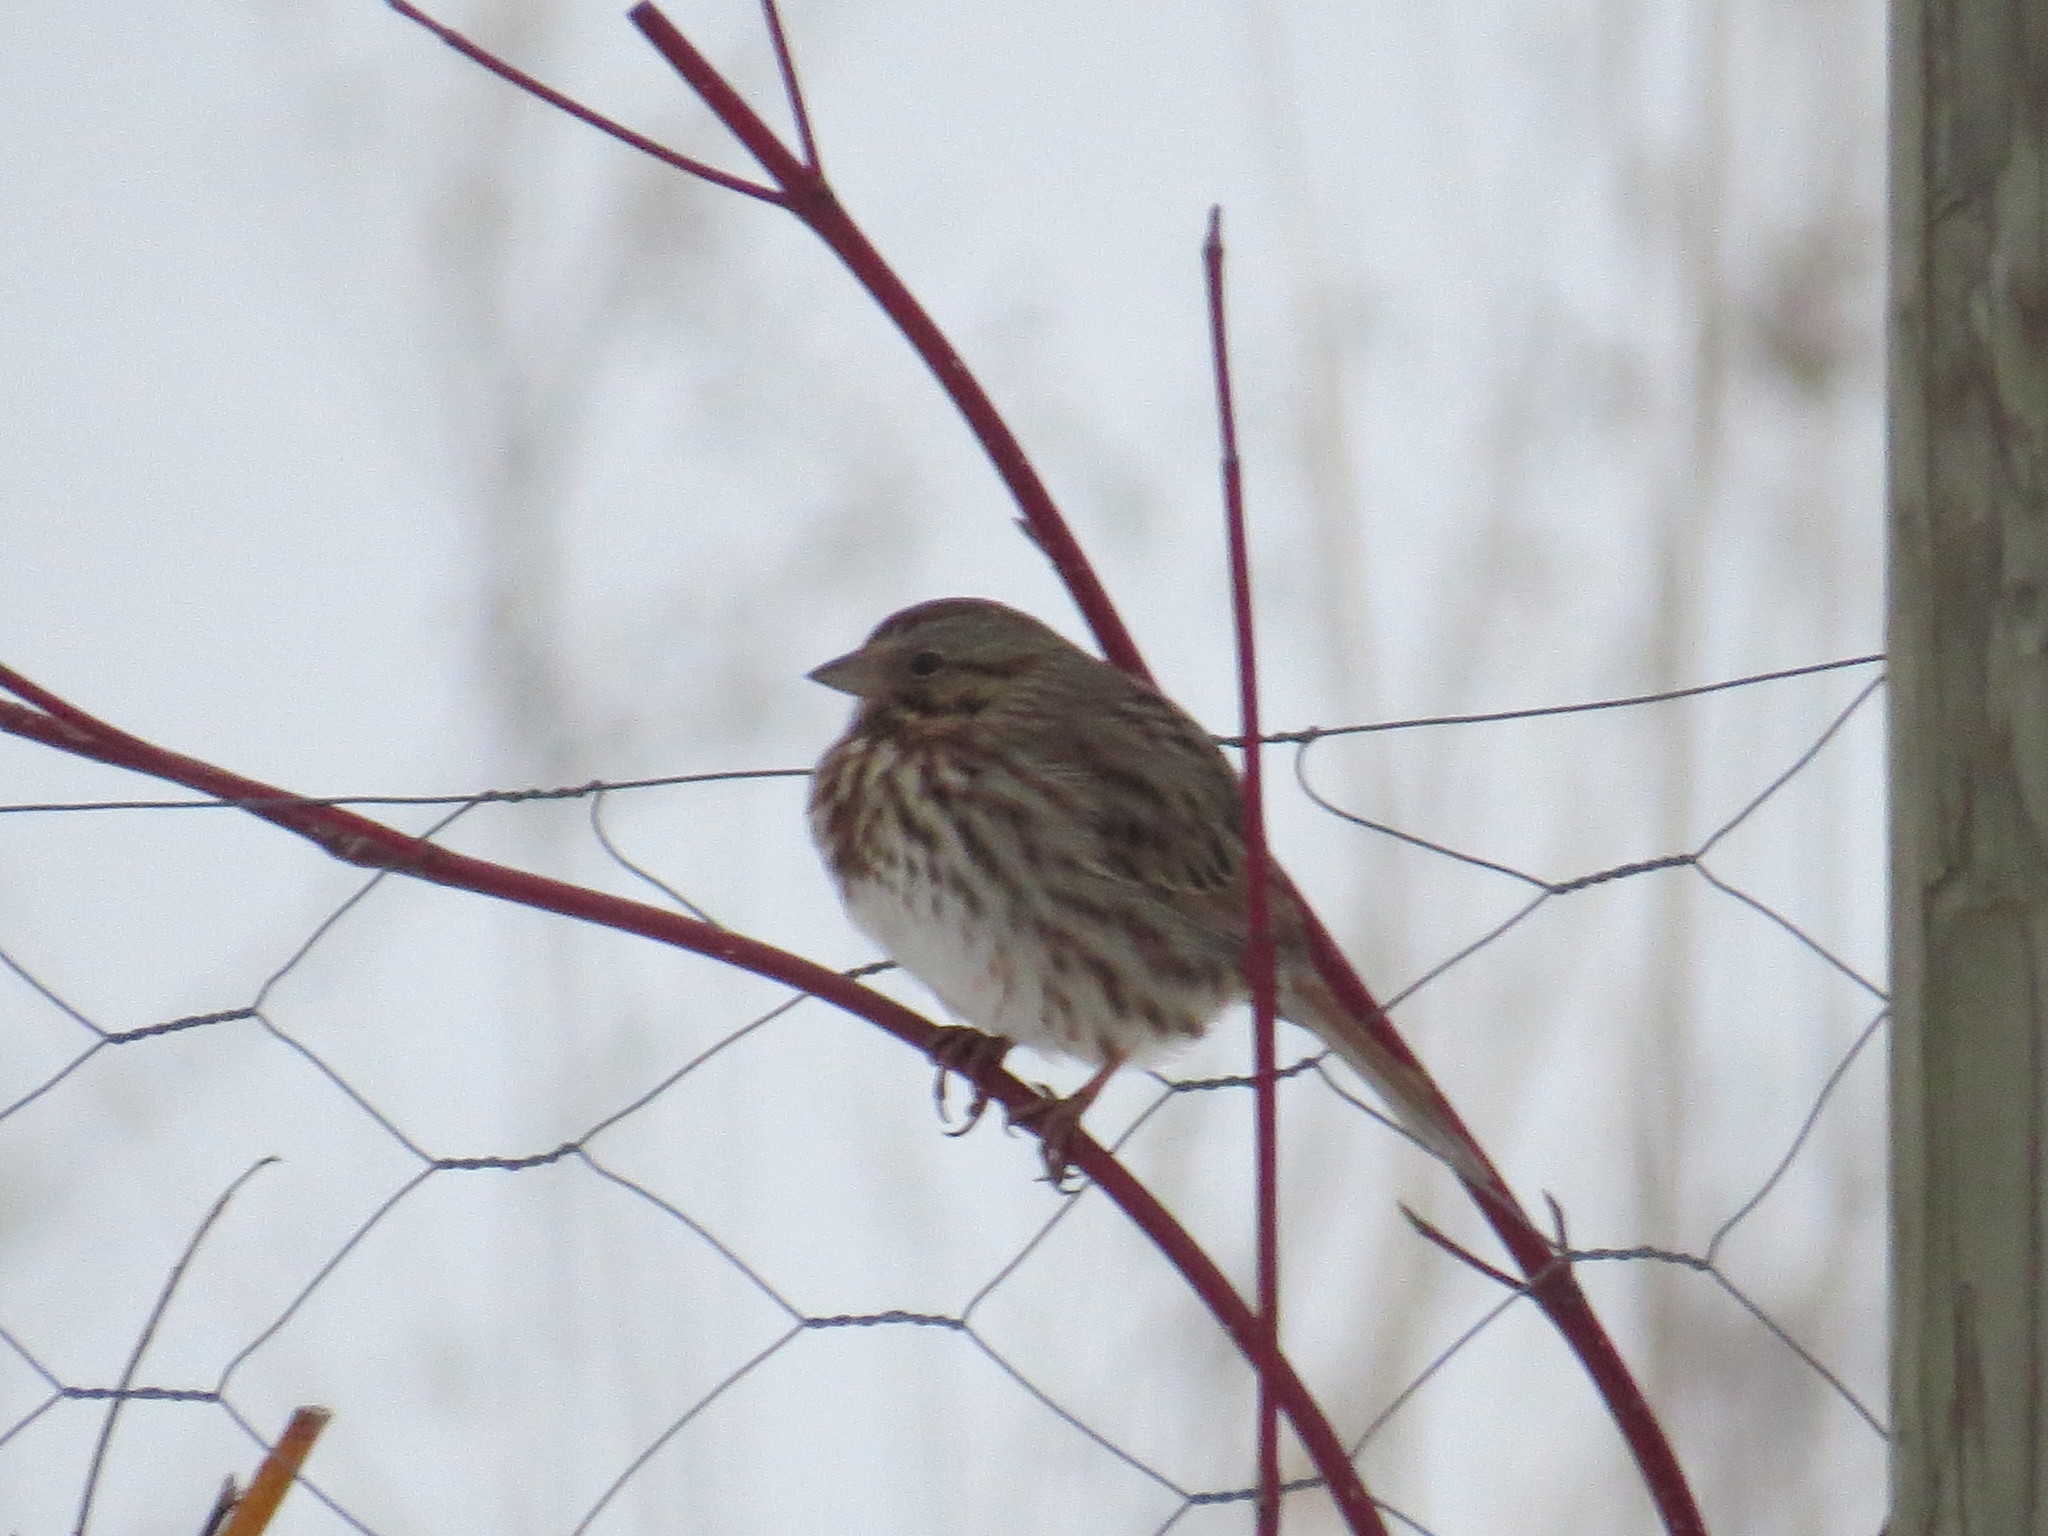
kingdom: Animalia
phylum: Chordata
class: Aves
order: Passeriformes
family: Passerellidae
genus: Melospiza
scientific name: Melospiza melodia
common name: Song sparrow
